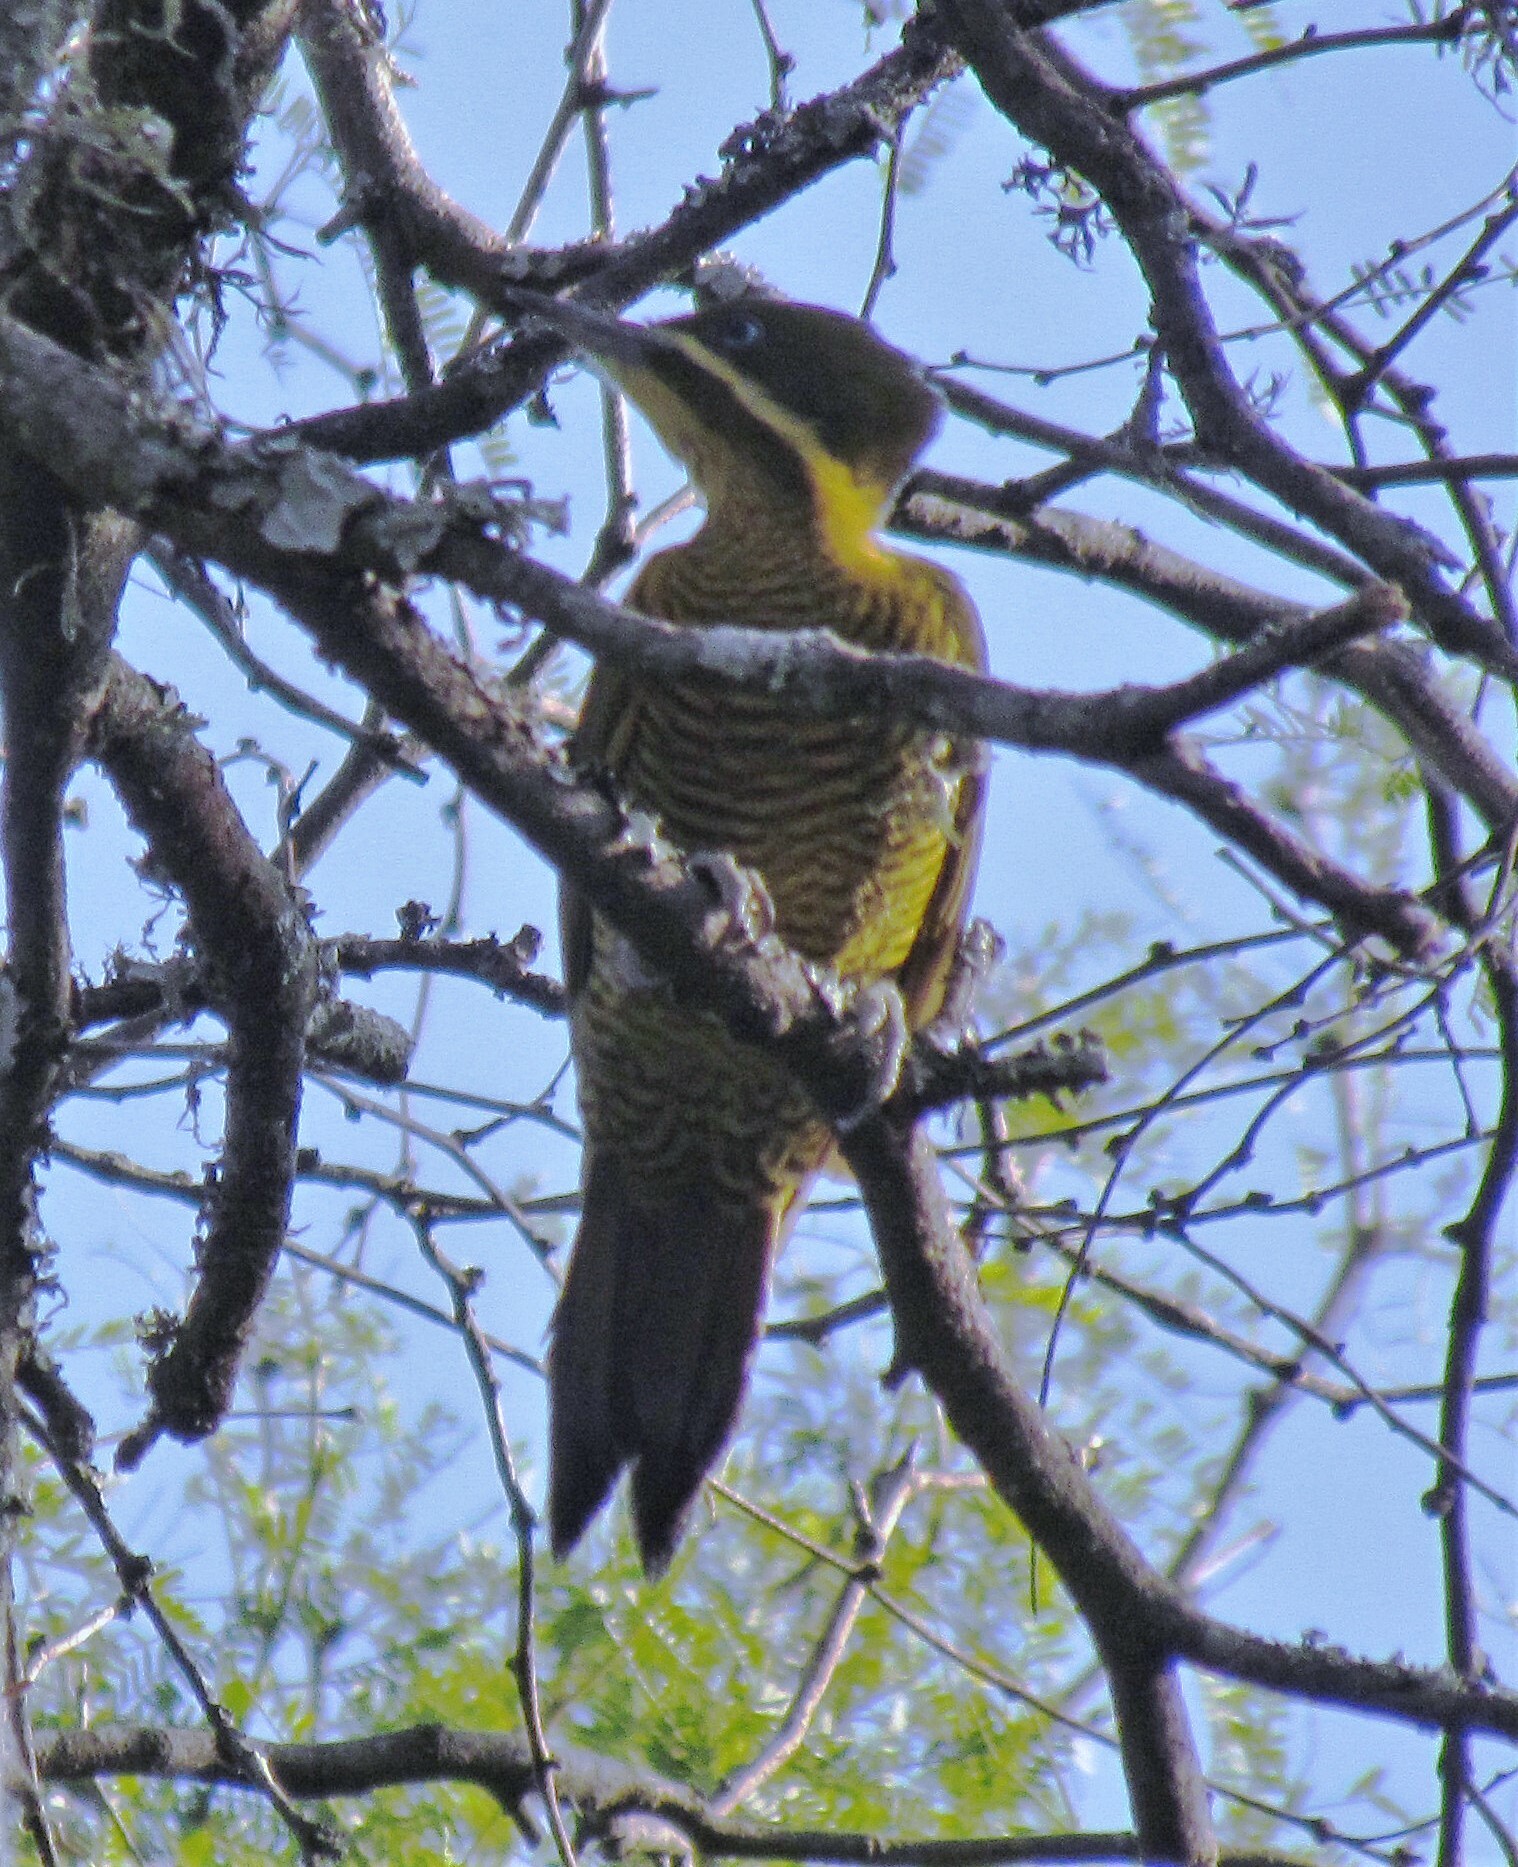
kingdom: Animalia
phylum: Chordata
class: Aves
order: Piciformes
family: Picidae
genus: Piculus
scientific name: Piculus chrysochloros
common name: Golden-green woodpecker
